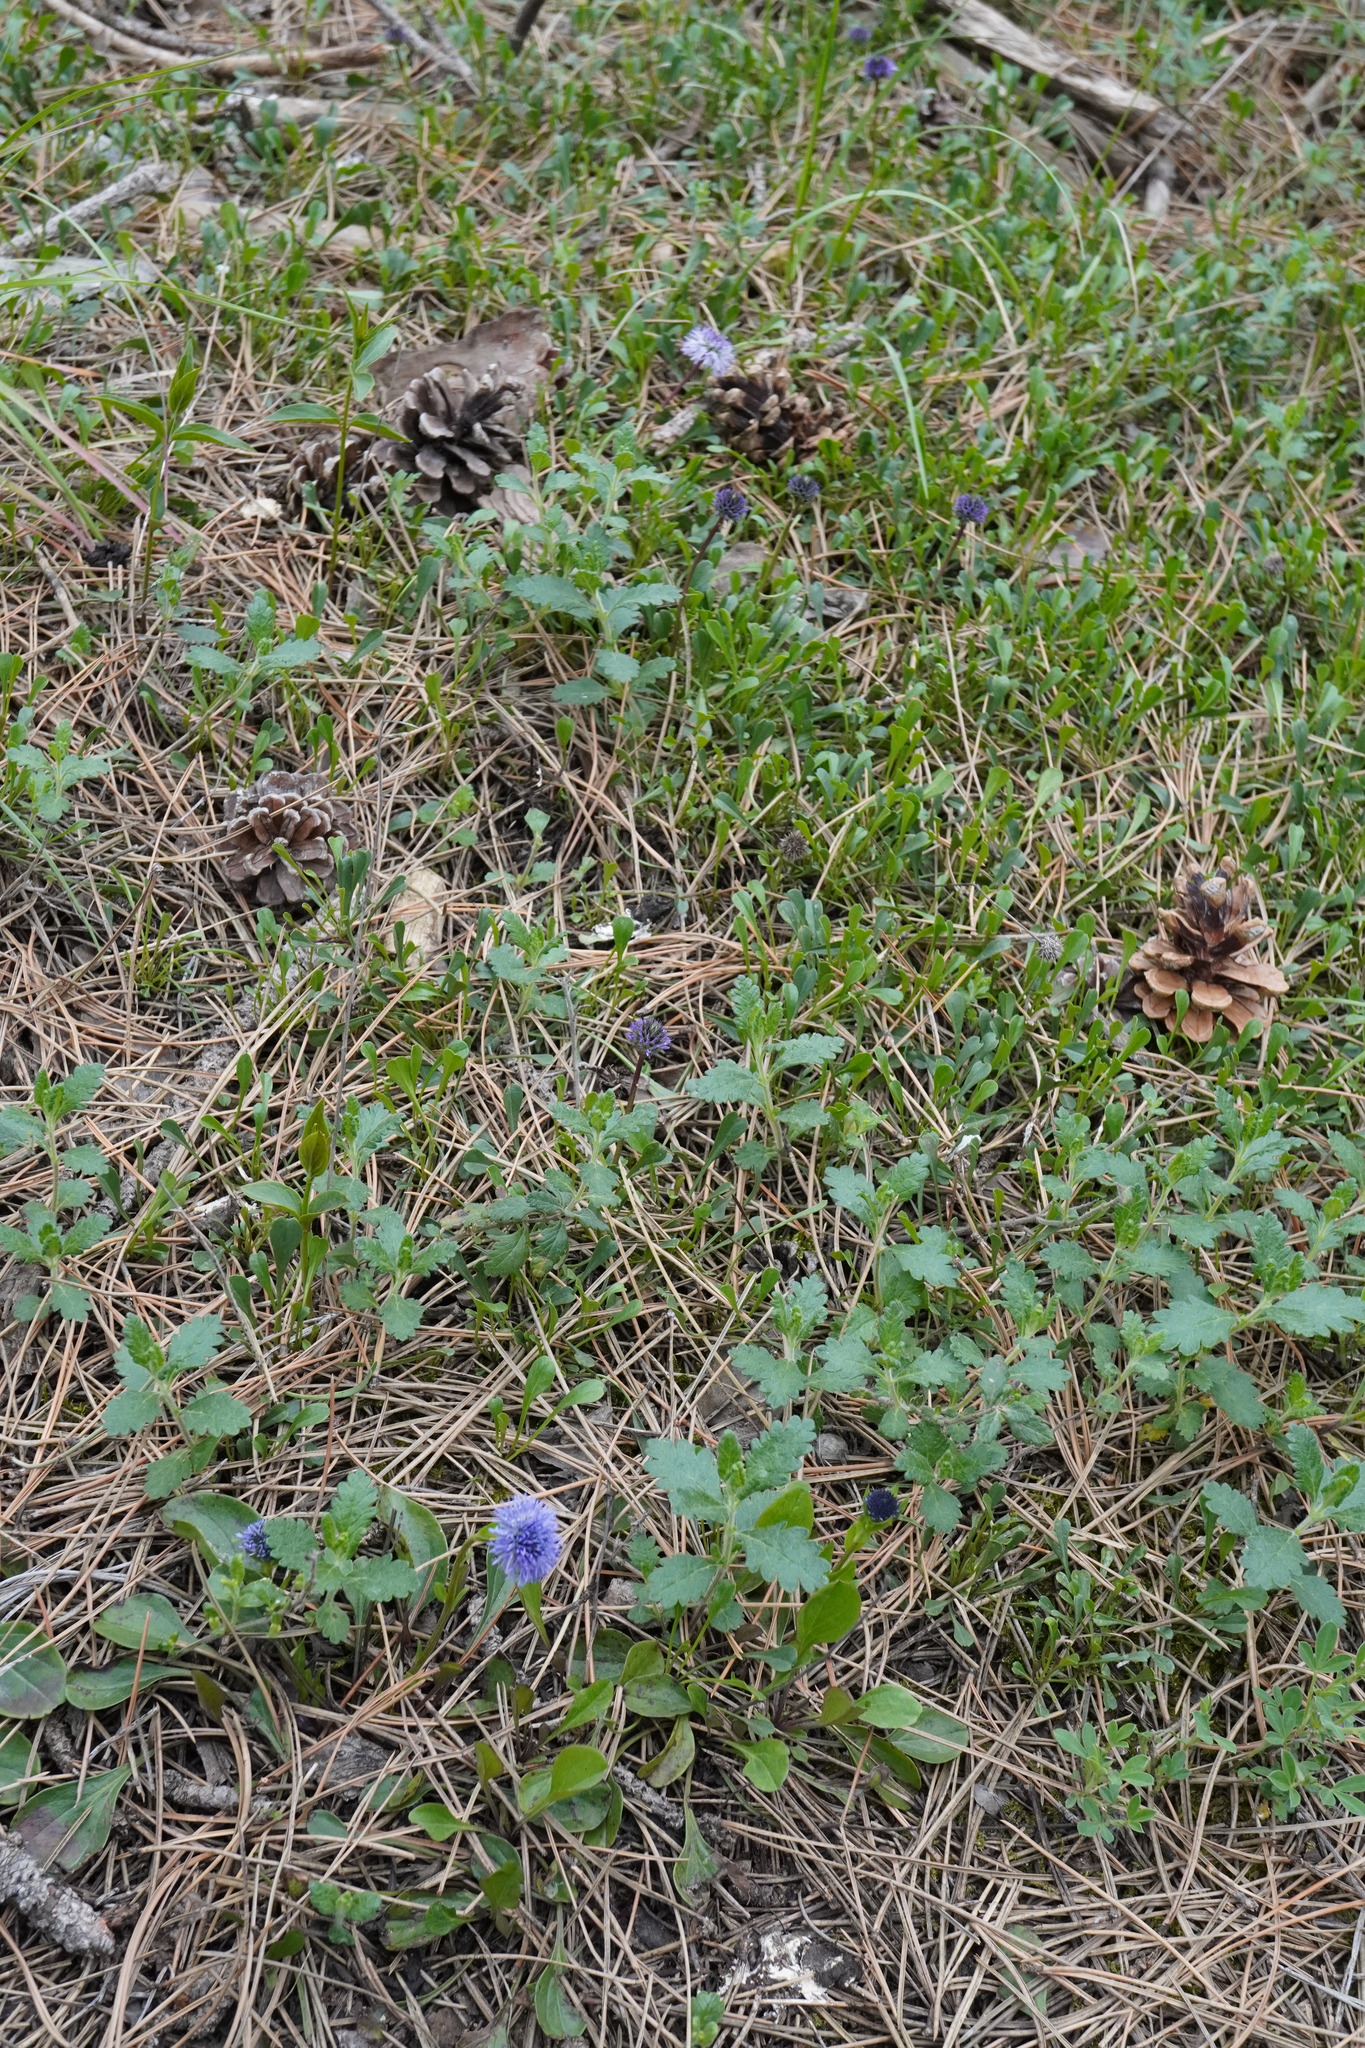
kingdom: Plantae
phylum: Tracheophyta
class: Magnoliopsida
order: Lamiales
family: Plantaginaceae
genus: Globularia
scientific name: Globularia bisnagarica
